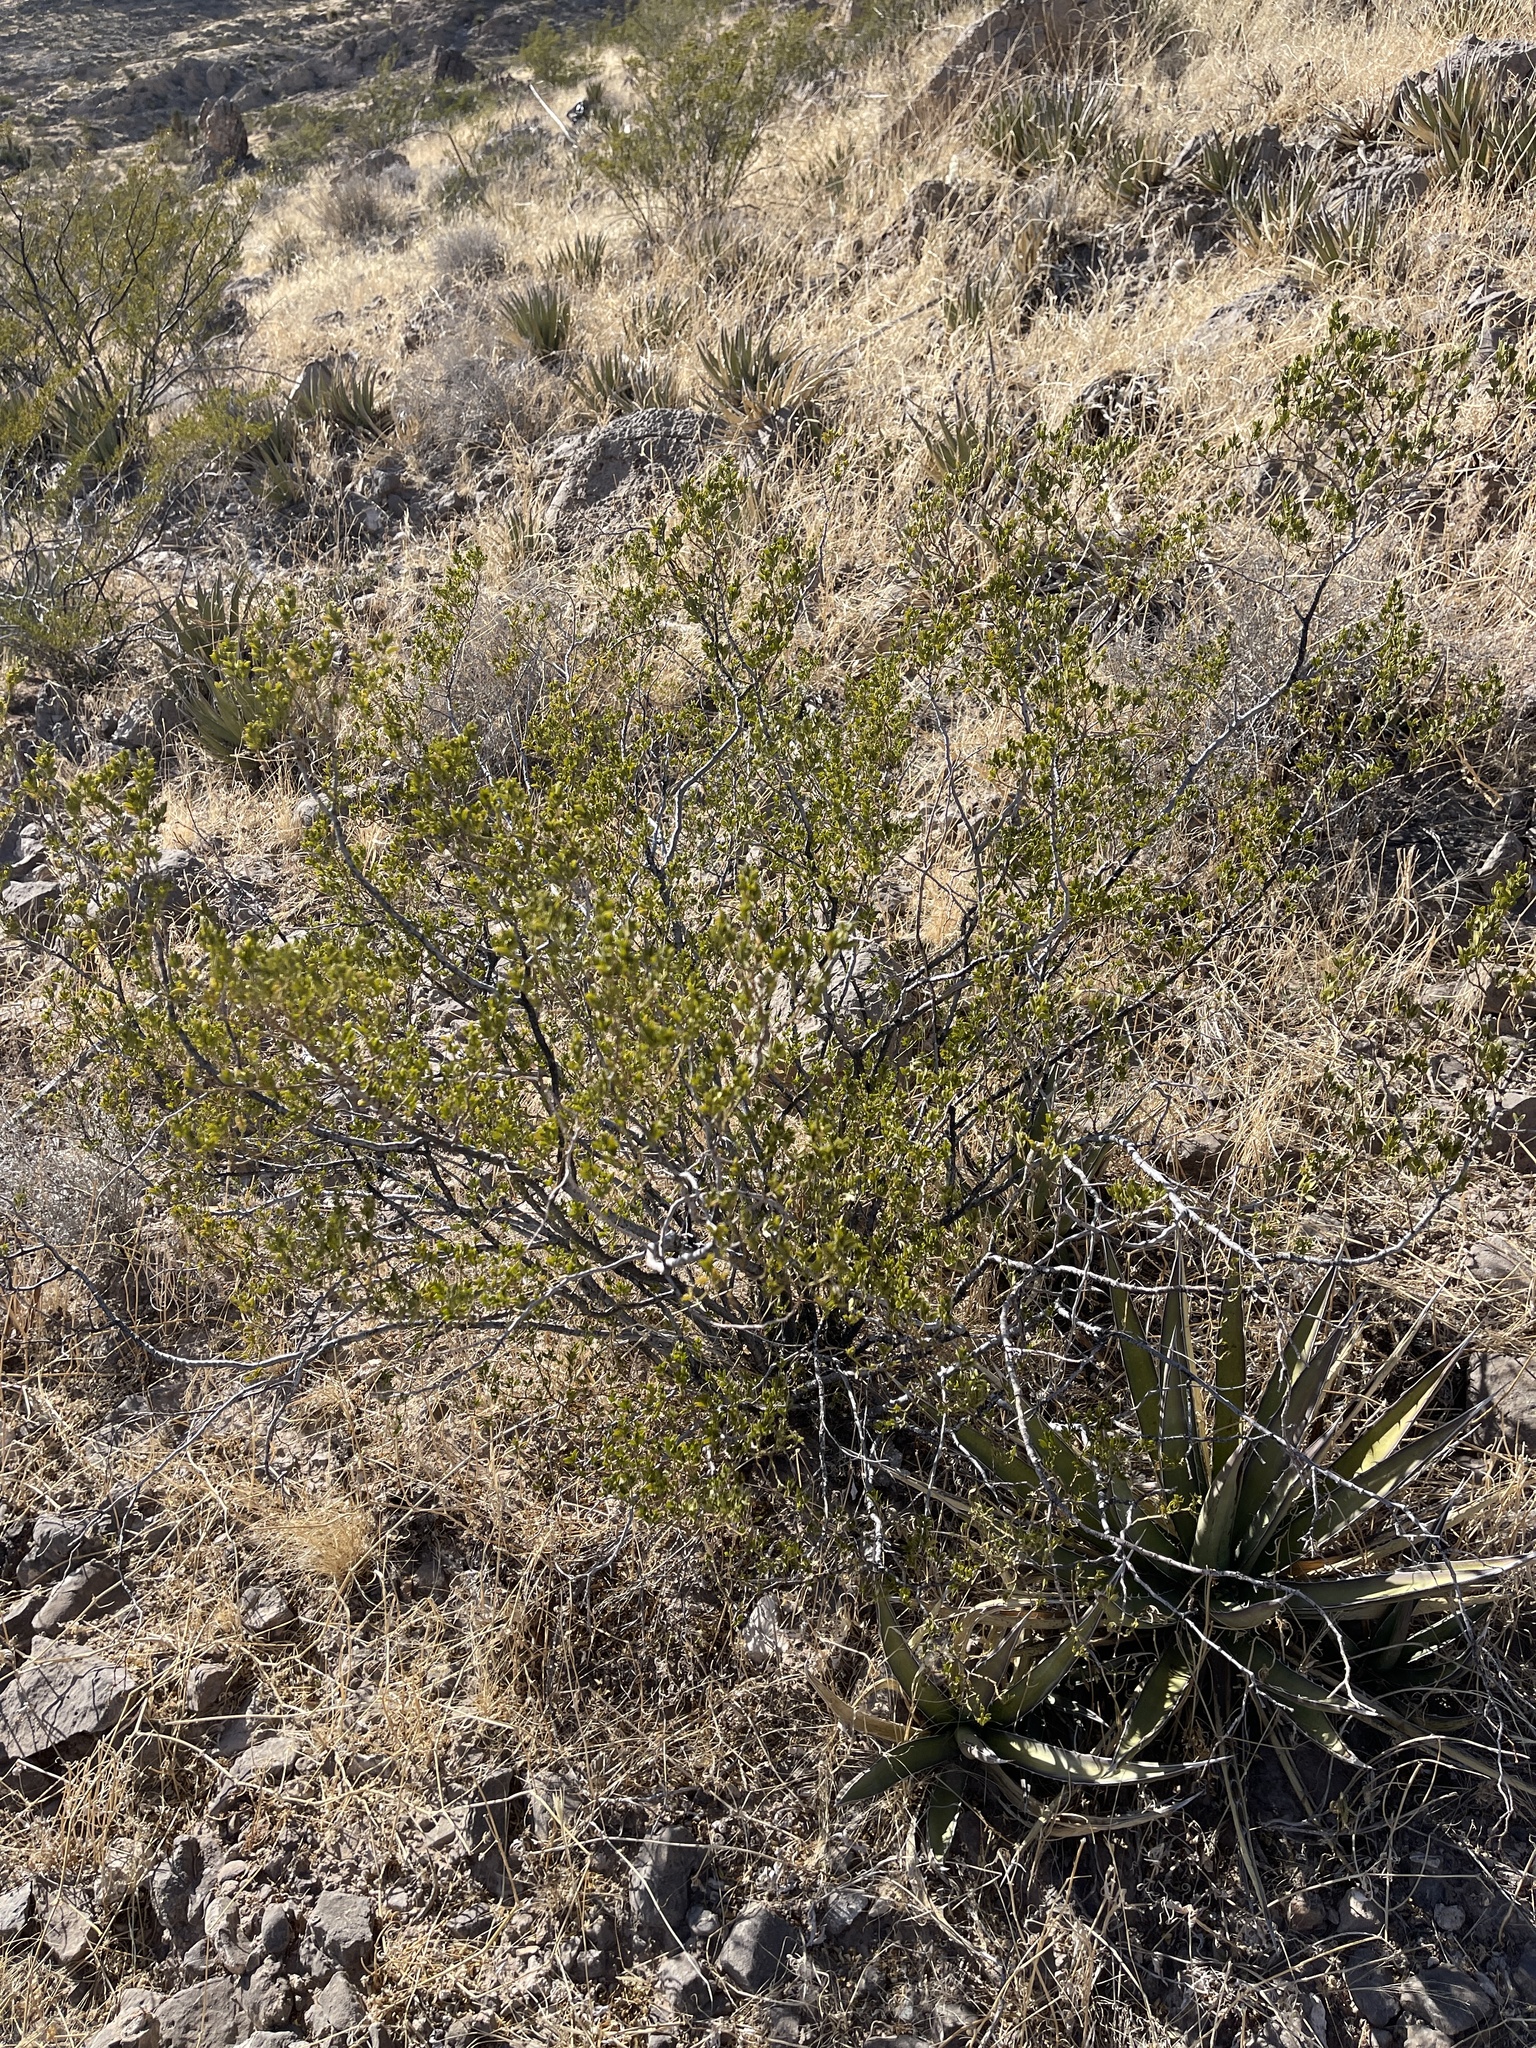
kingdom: Plantae
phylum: Tracheophyta
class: Magnoliopsida
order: Zygophyllales
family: Zygophyllaceae
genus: Larrea
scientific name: Larrea tridentata
